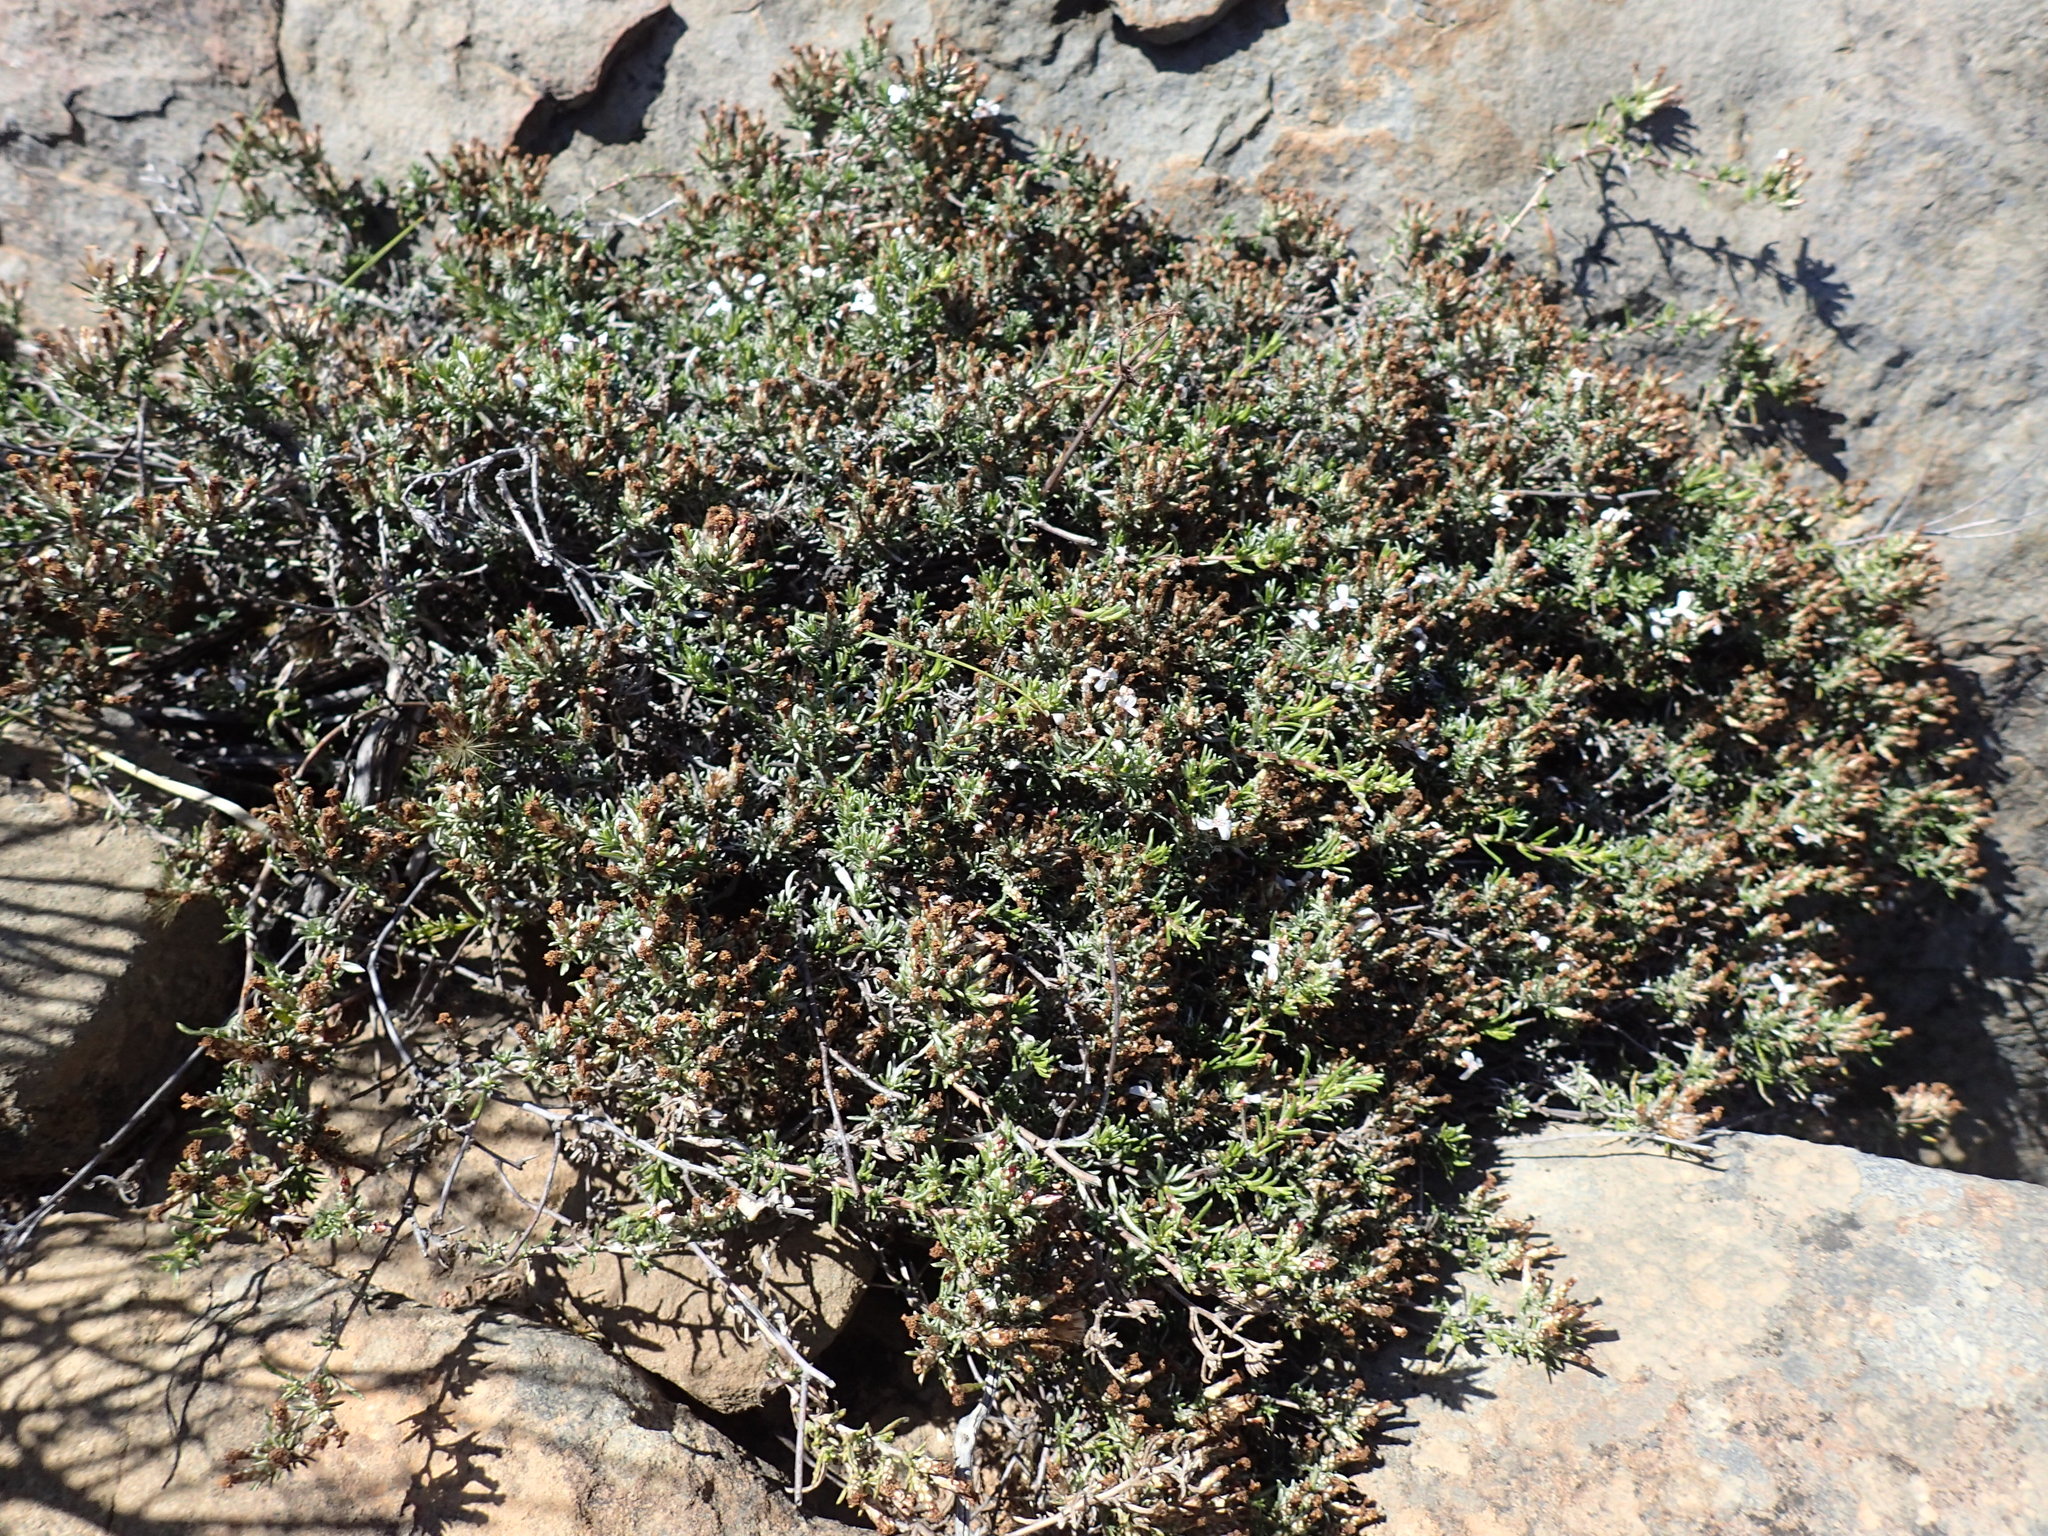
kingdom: Plantae
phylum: Tracheophyta
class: Magnoliopsida
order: Asterales
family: Asteraceae
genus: Amphiglossa
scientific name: Amphiglossa tomentosa
